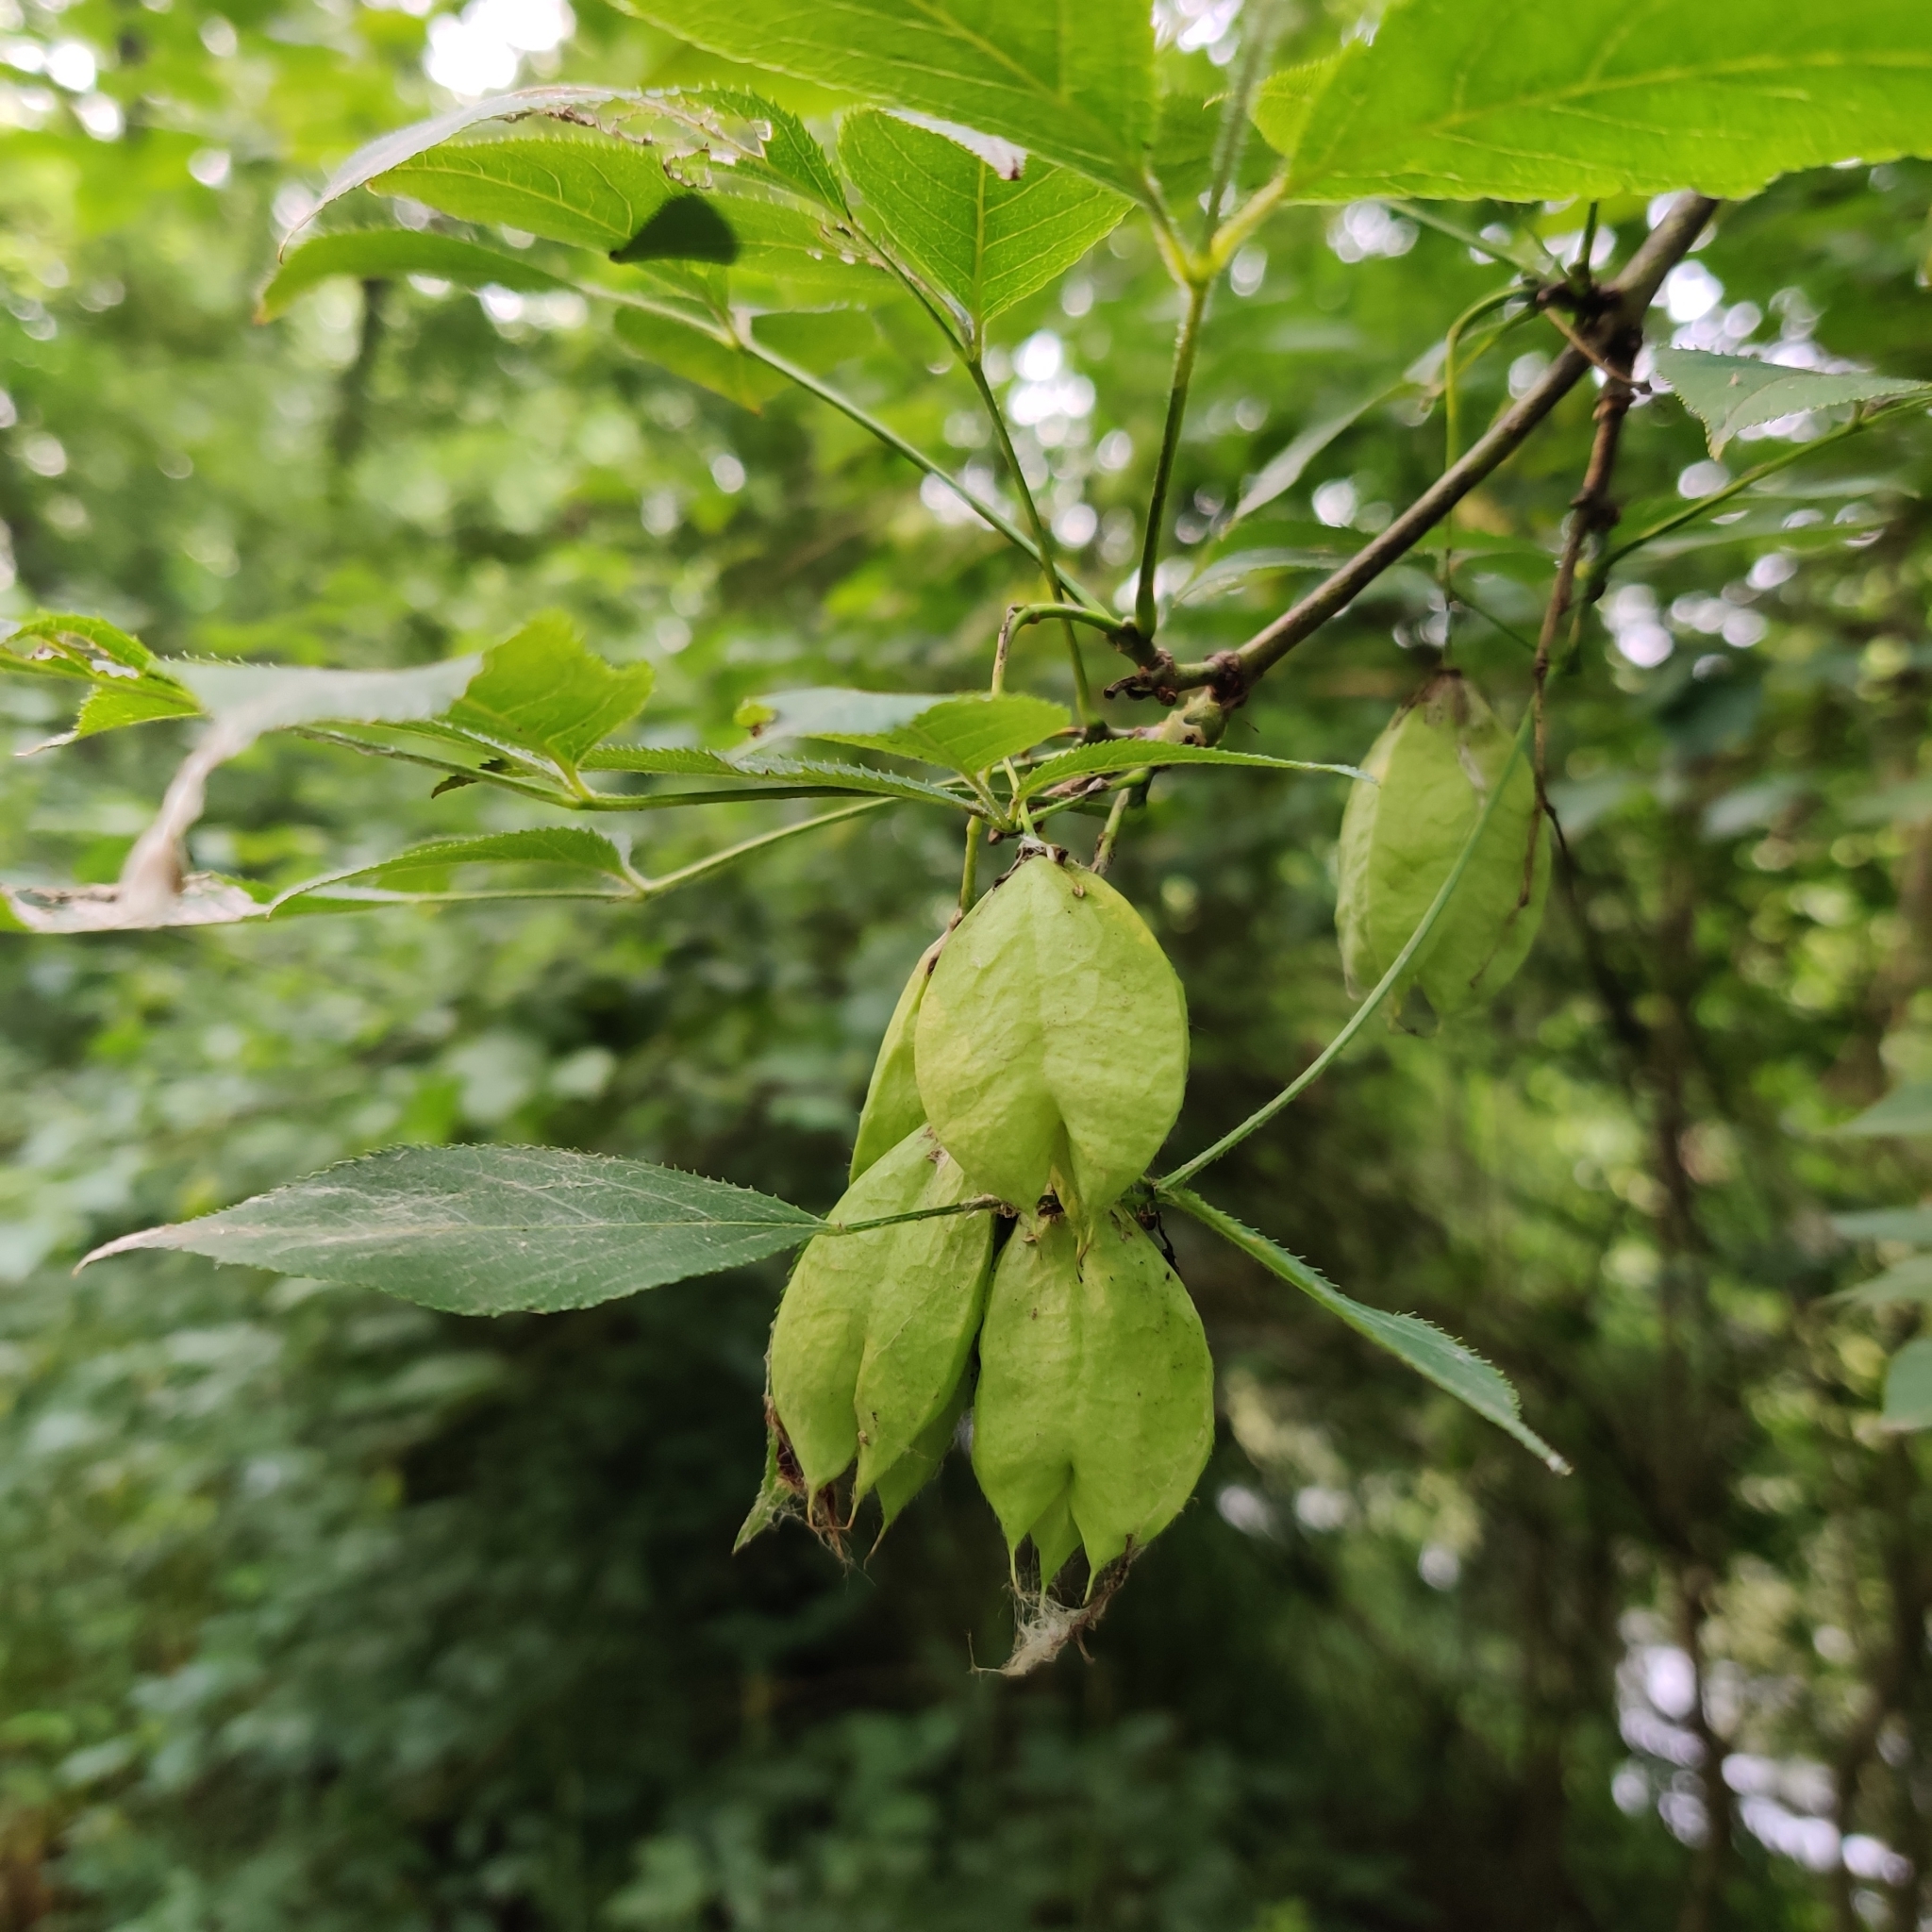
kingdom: Plantae
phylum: Tracheophyta
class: Magnoliopsida
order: Crossosomatales
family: Staphyleaceae
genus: Staphylea
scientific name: Staphylea trifolia
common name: American bladdernut
